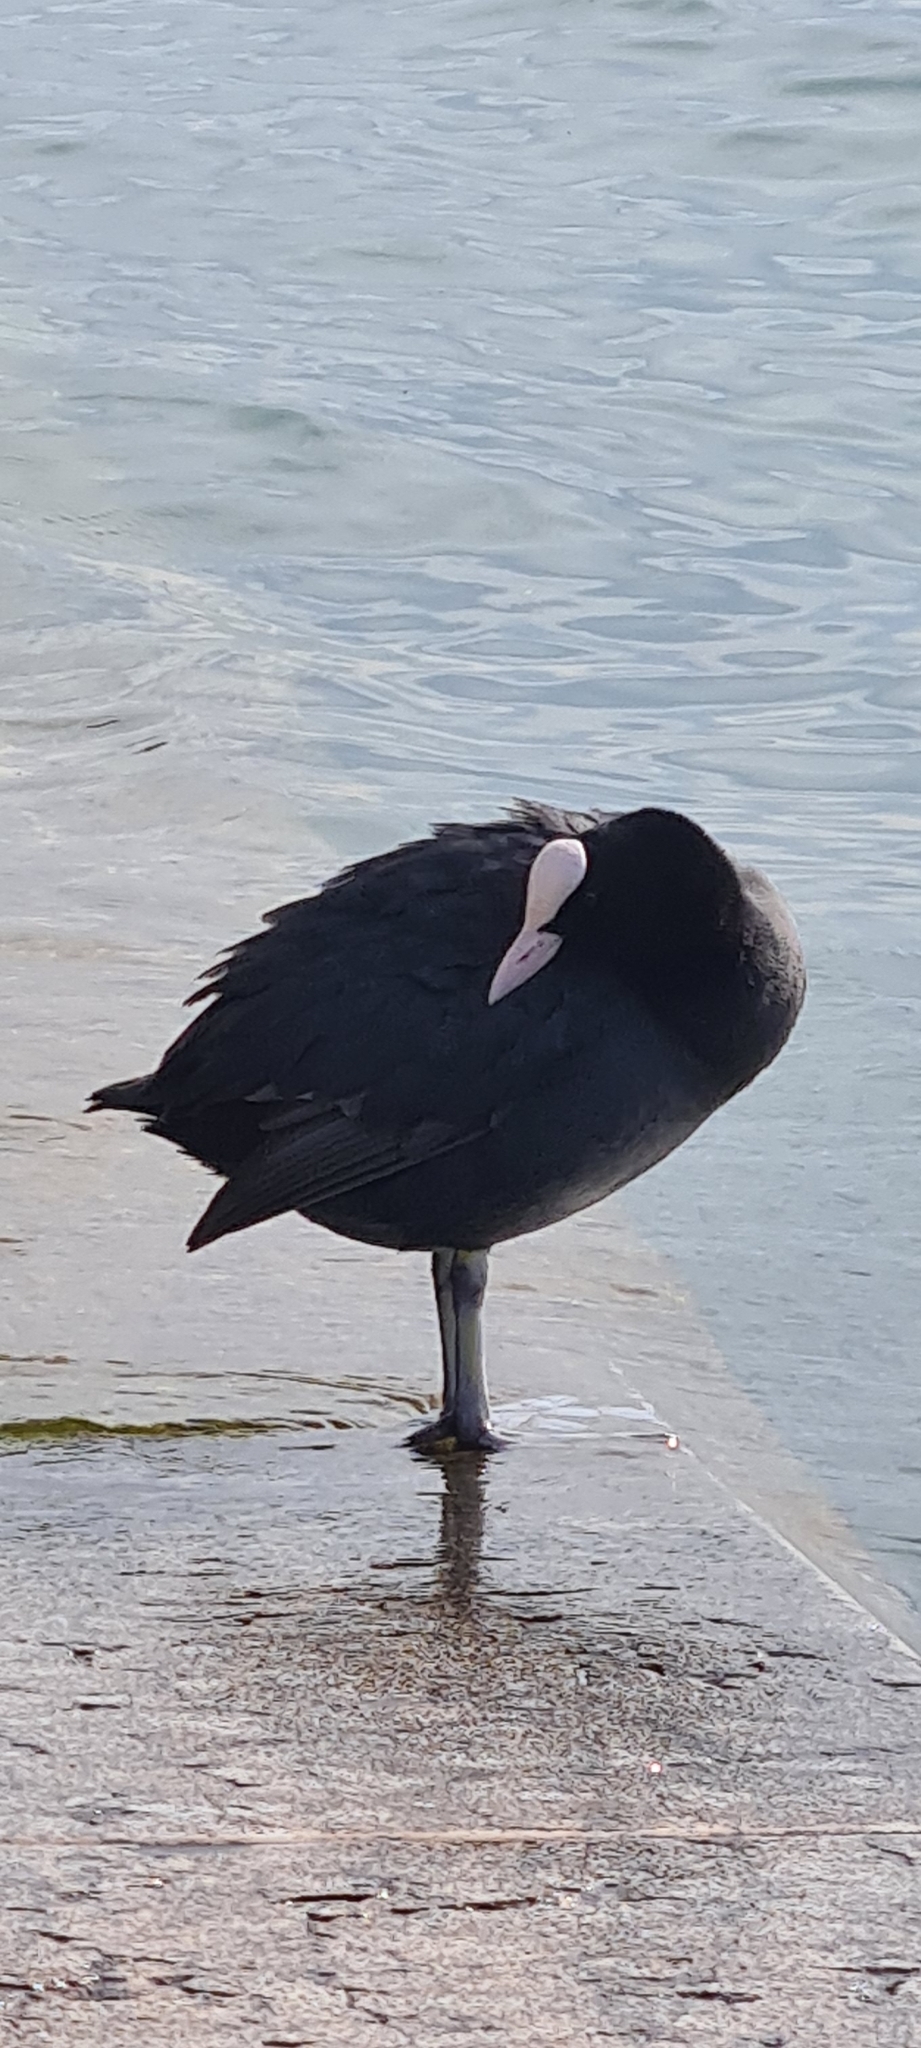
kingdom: Animalia
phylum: Chordata
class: Aves
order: Gruiformes
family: Rallidae
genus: Fulica
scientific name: Fulica atra
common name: Eurasian coot
